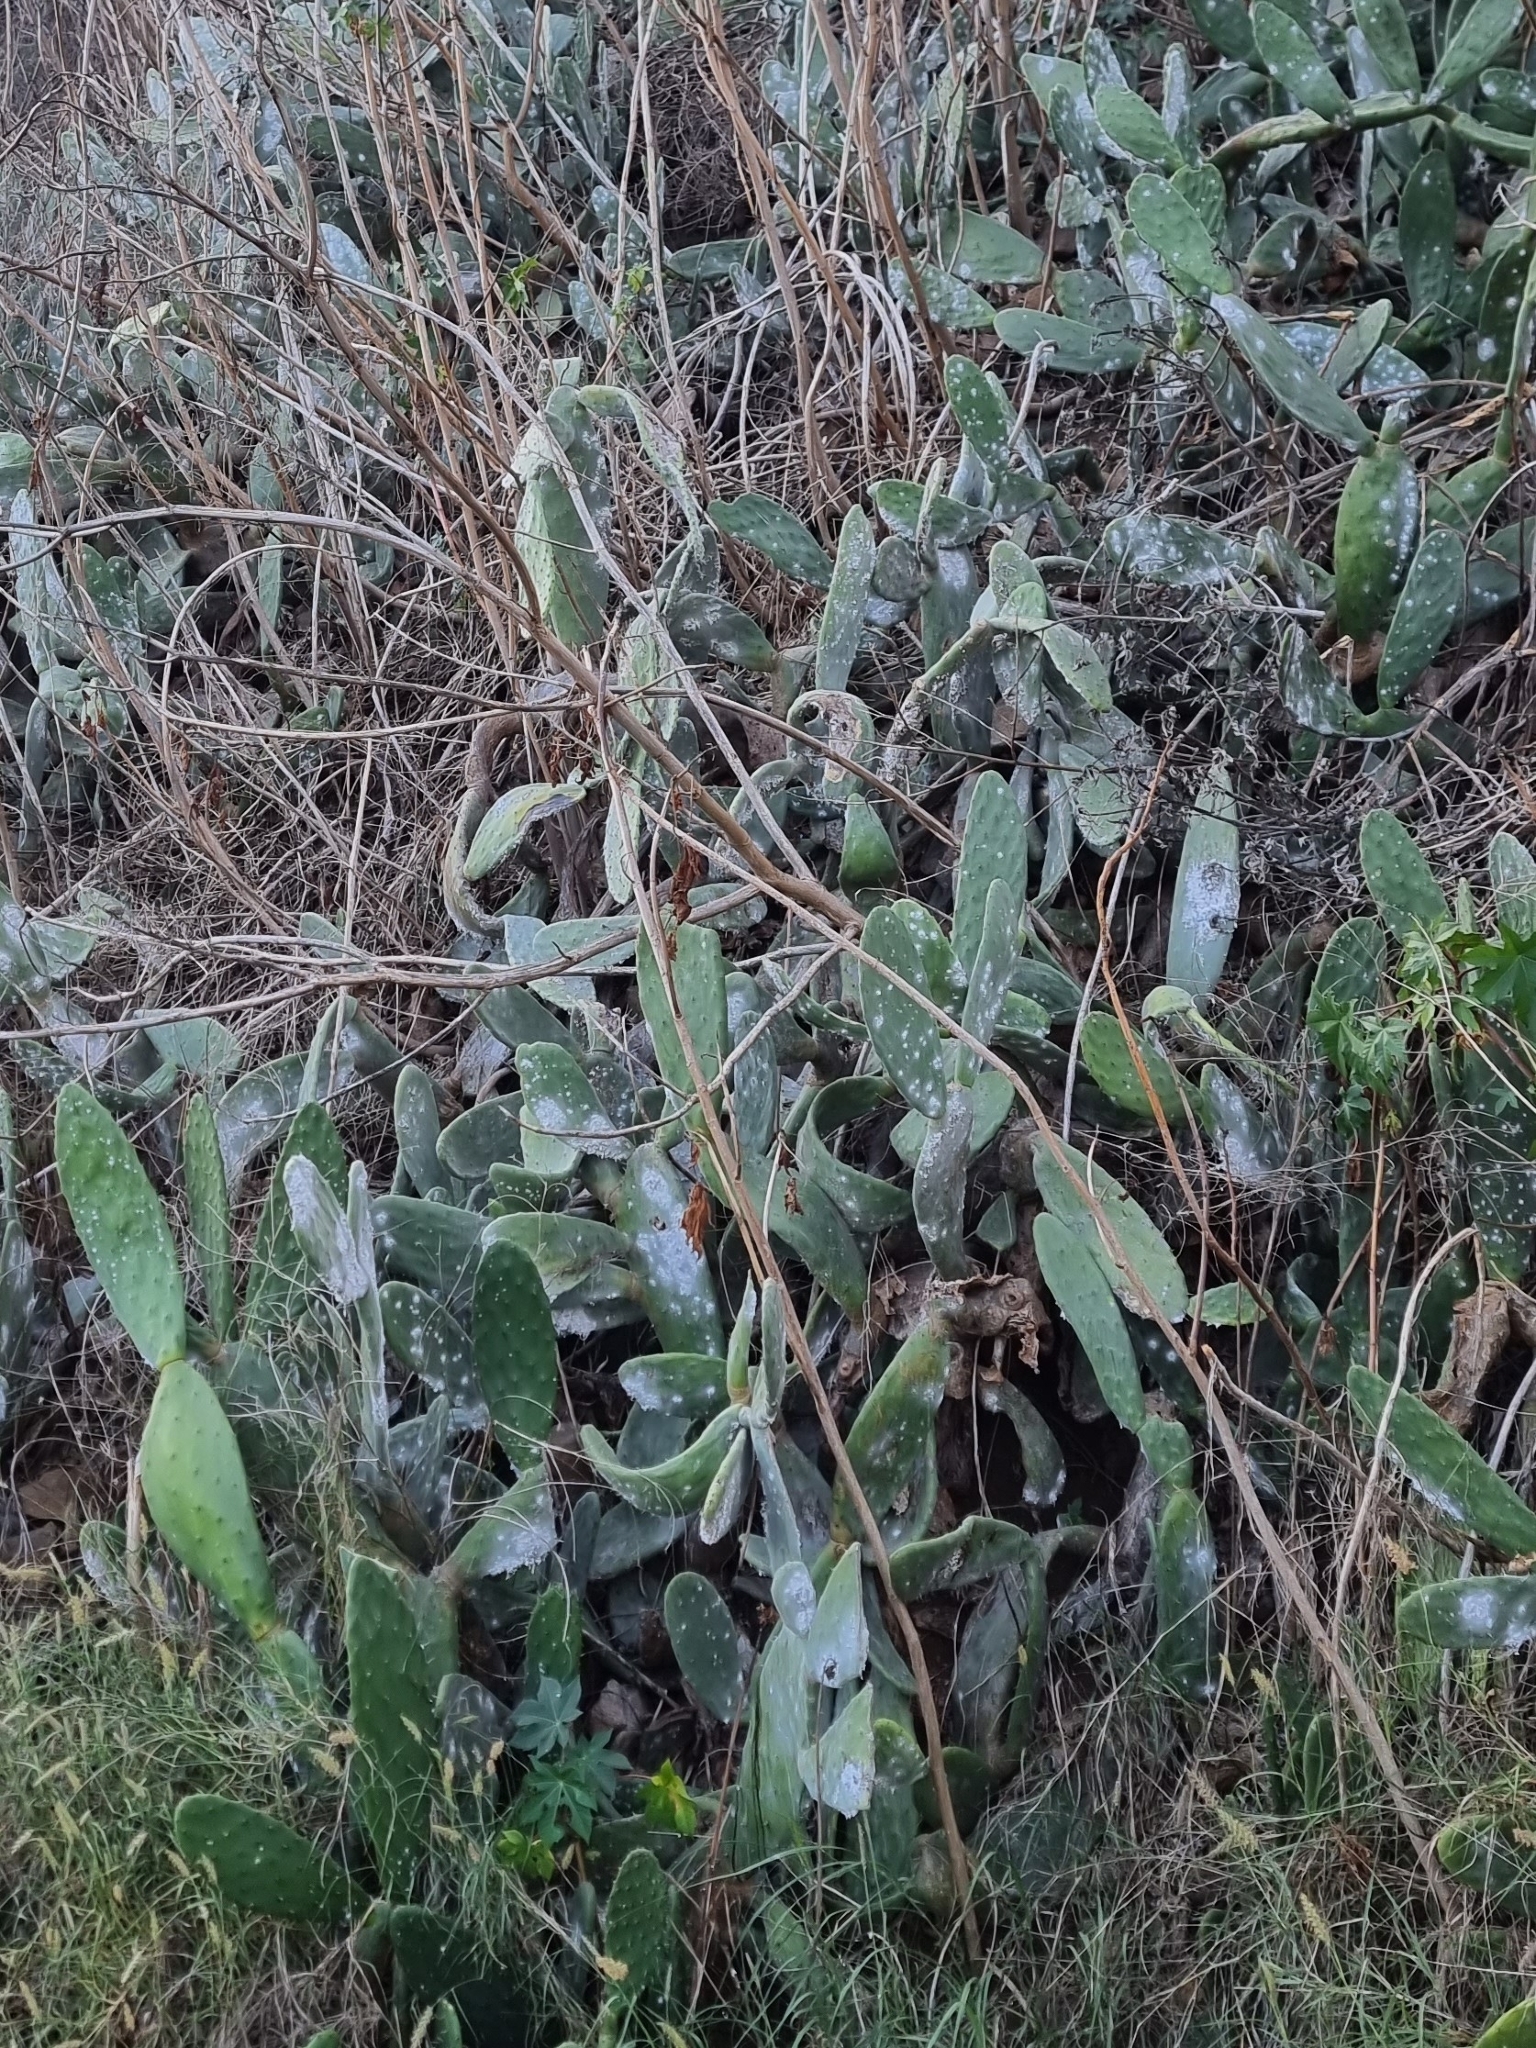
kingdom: Plantae
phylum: Tracheophyta
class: Magnoliopsida
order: Caryophyllales
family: Cactaceae
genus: Opuntia
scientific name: Opuntia ficus-indica
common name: Barbary fig
